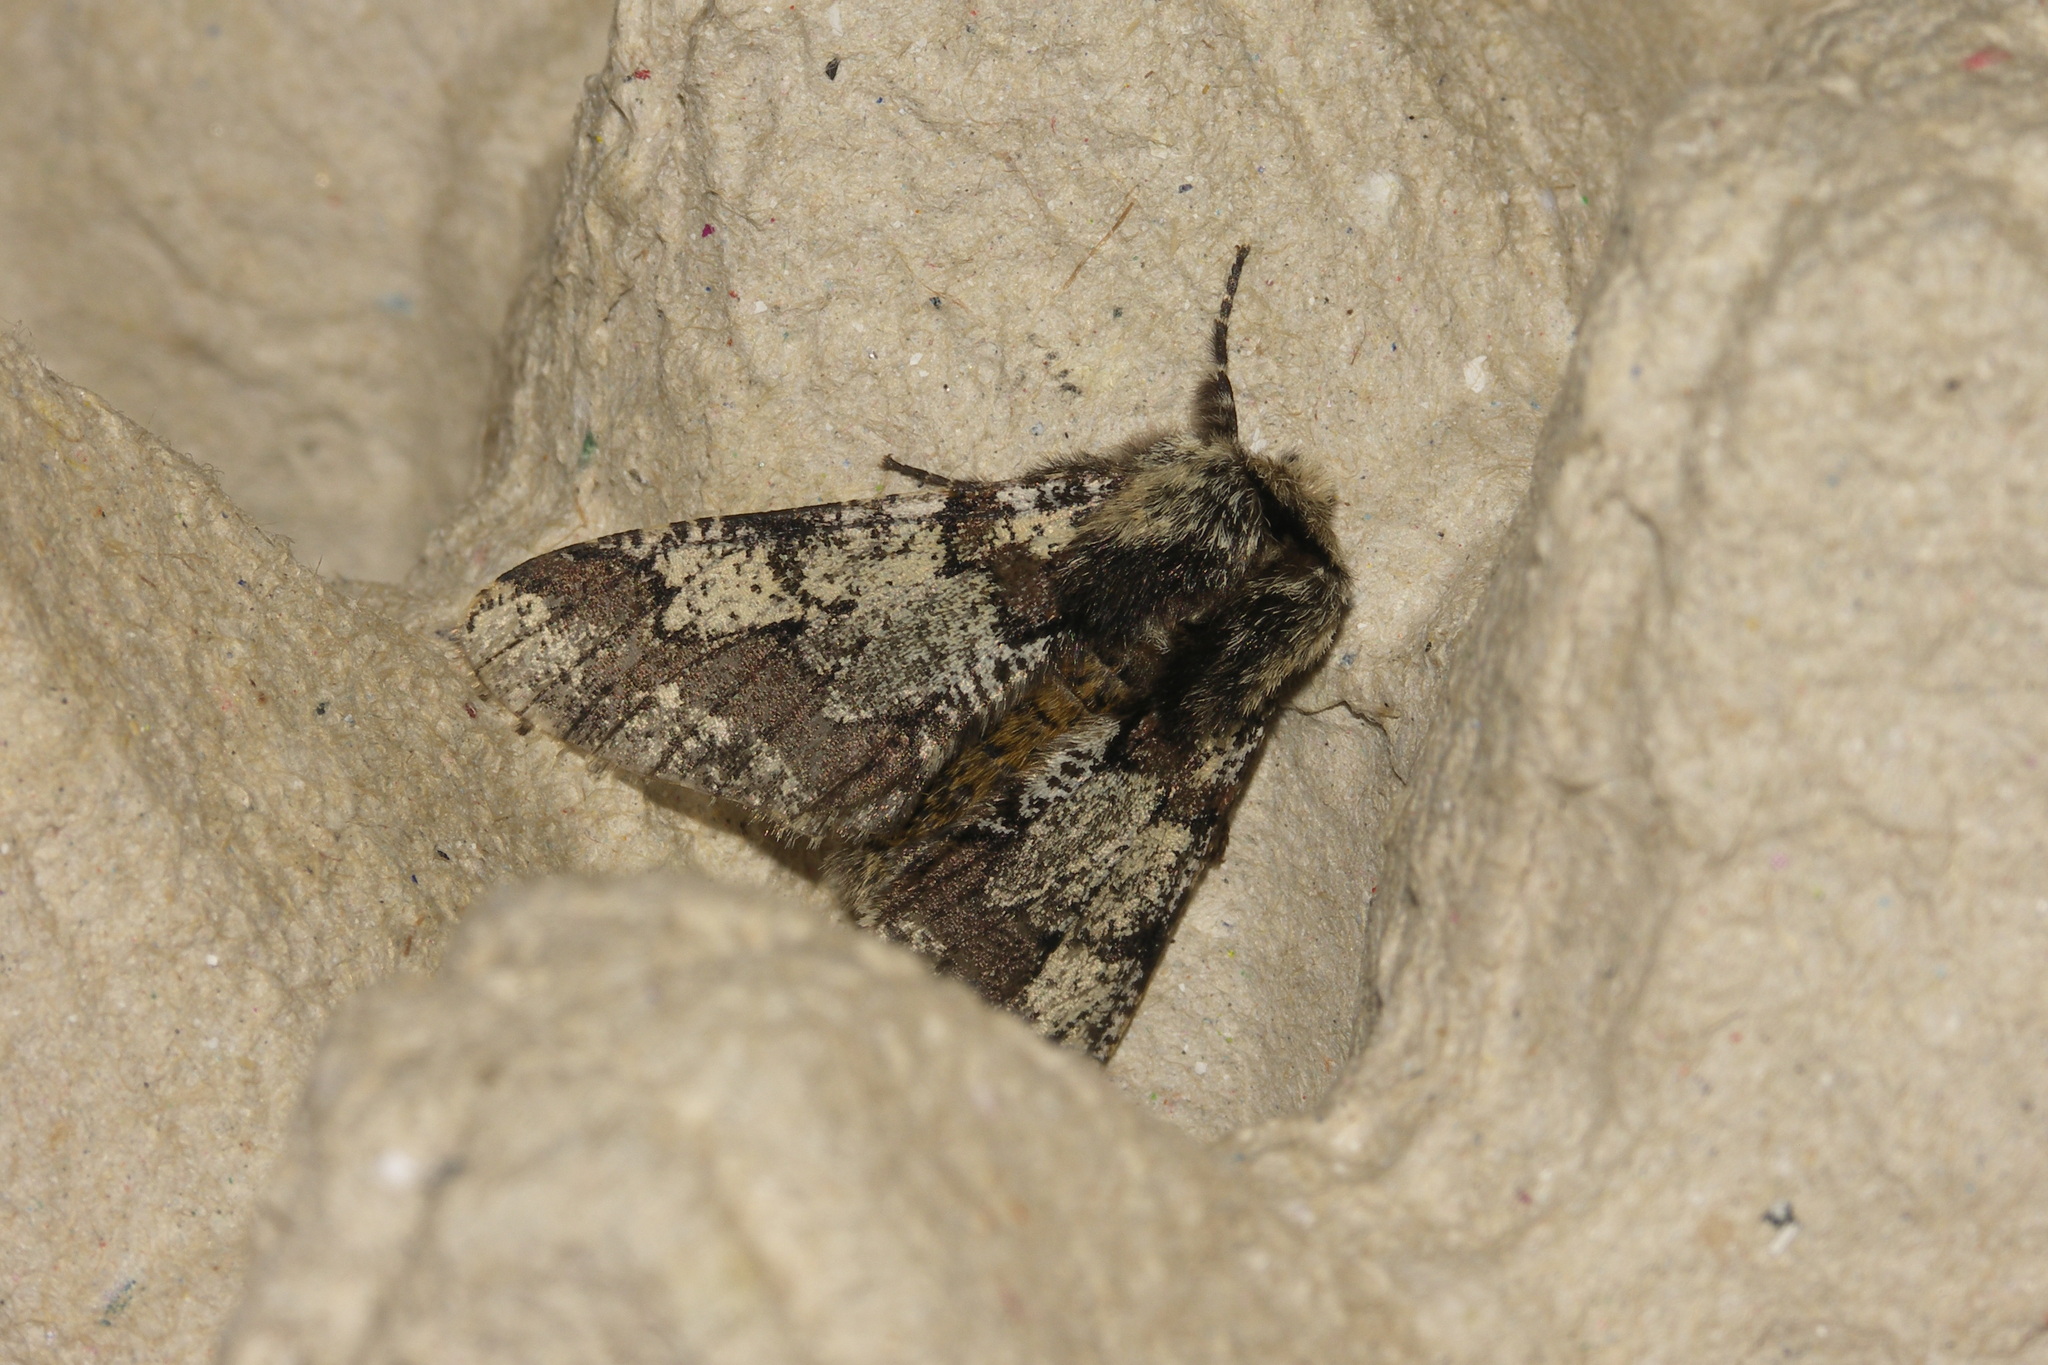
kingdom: Animalia
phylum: Arthropoda
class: Insecta
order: Lepidoptera
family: Geometridae
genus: Biston
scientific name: Biston strataria
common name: Oak beauty
